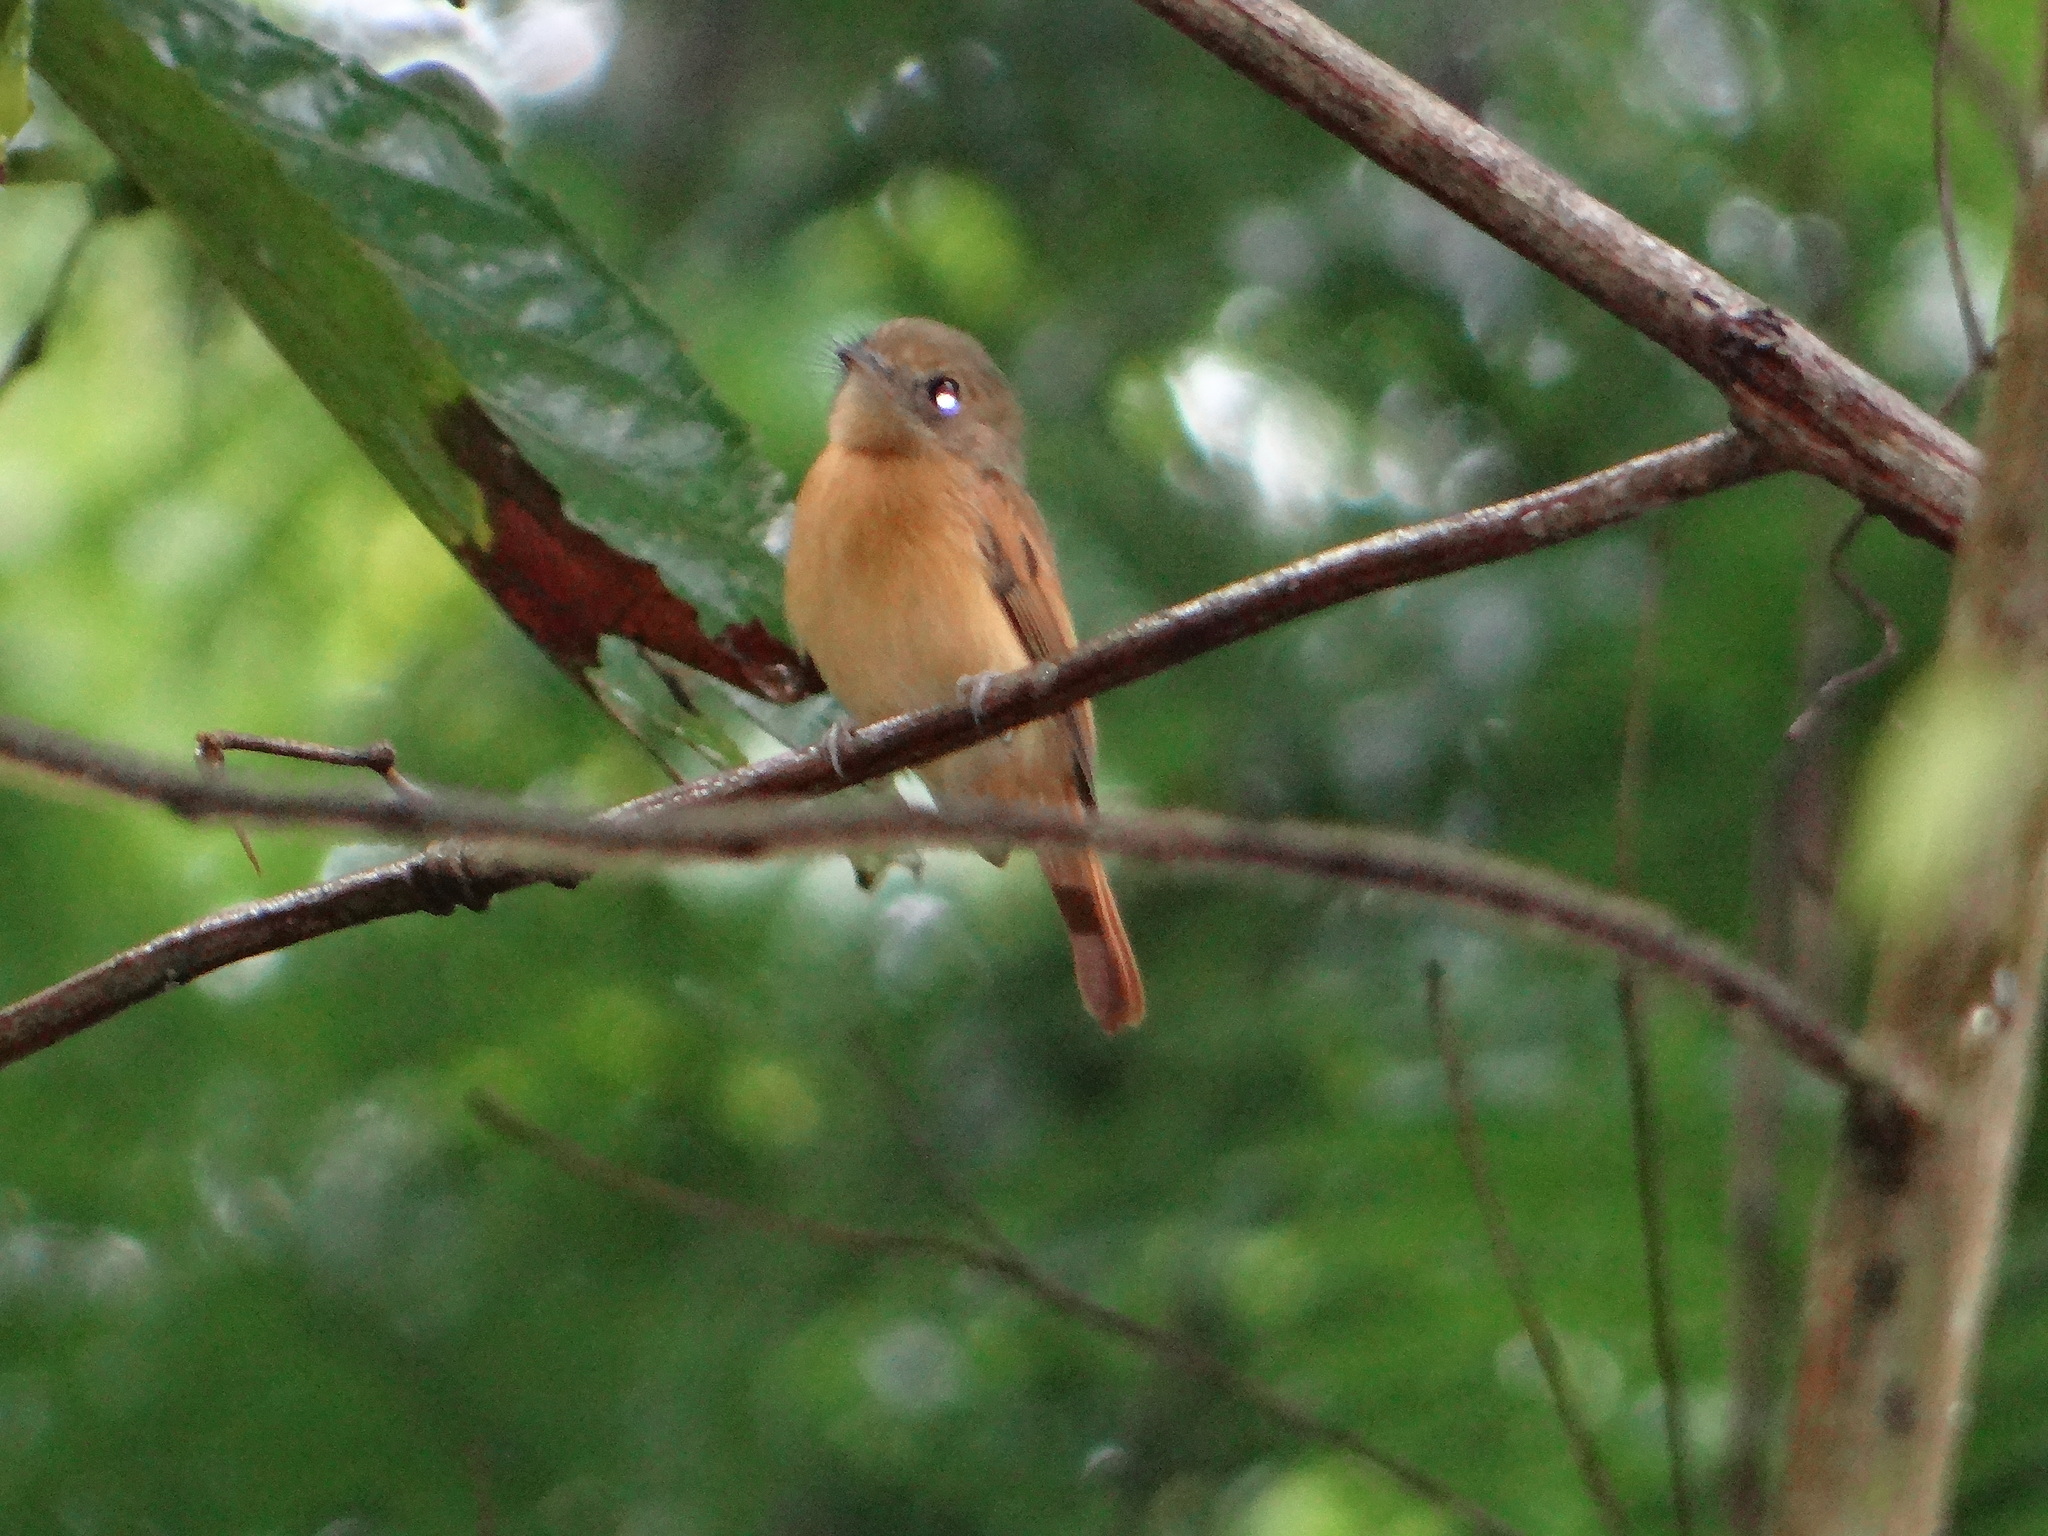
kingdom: Animalia
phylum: Chordata
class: Aves
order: Passeriformes
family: Tyrannidae
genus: Terenotriccus
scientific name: Terenotriccus erythrurus
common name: Ruddy-tailed flycatcher
